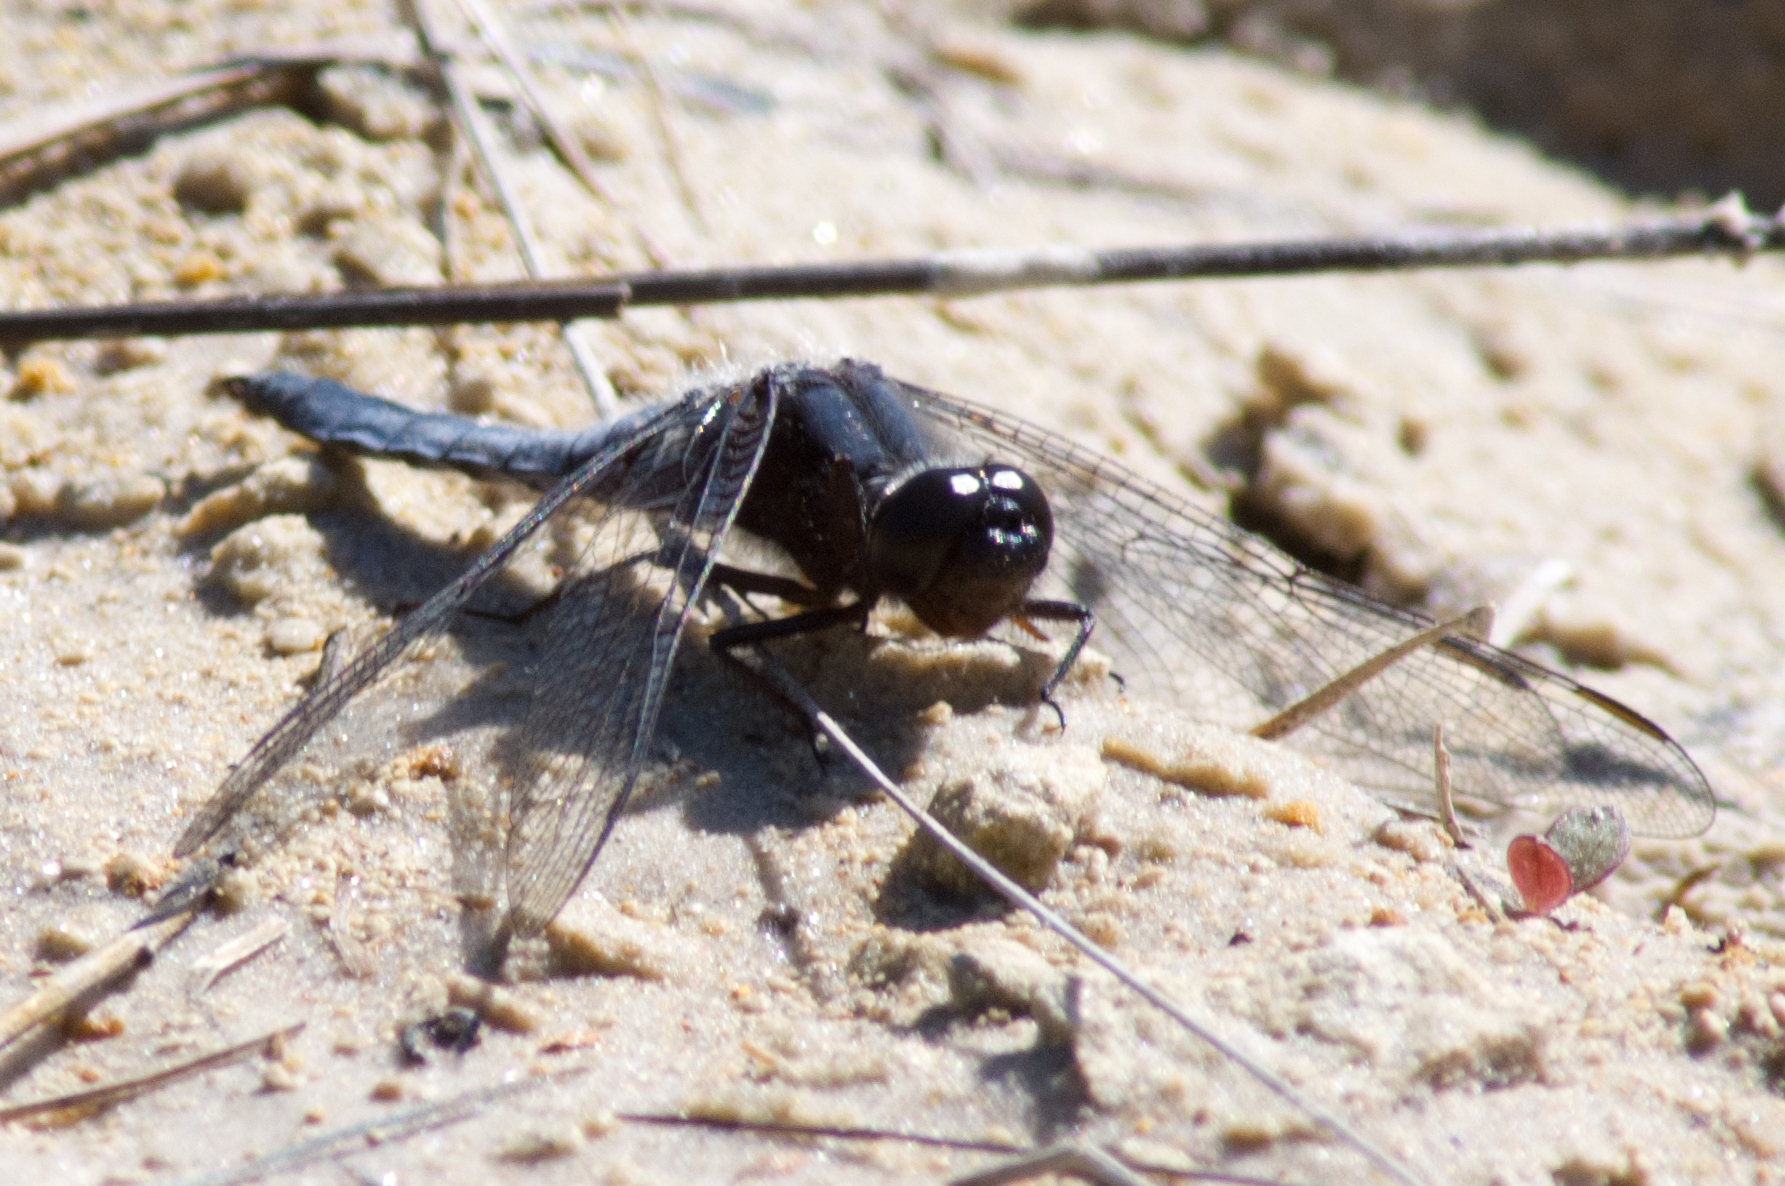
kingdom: Animalia
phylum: Arthropoda
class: Insecta
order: Odonata
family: Libellulidae
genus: Ladona
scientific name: Ladona deplanata
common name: Blue corporal
